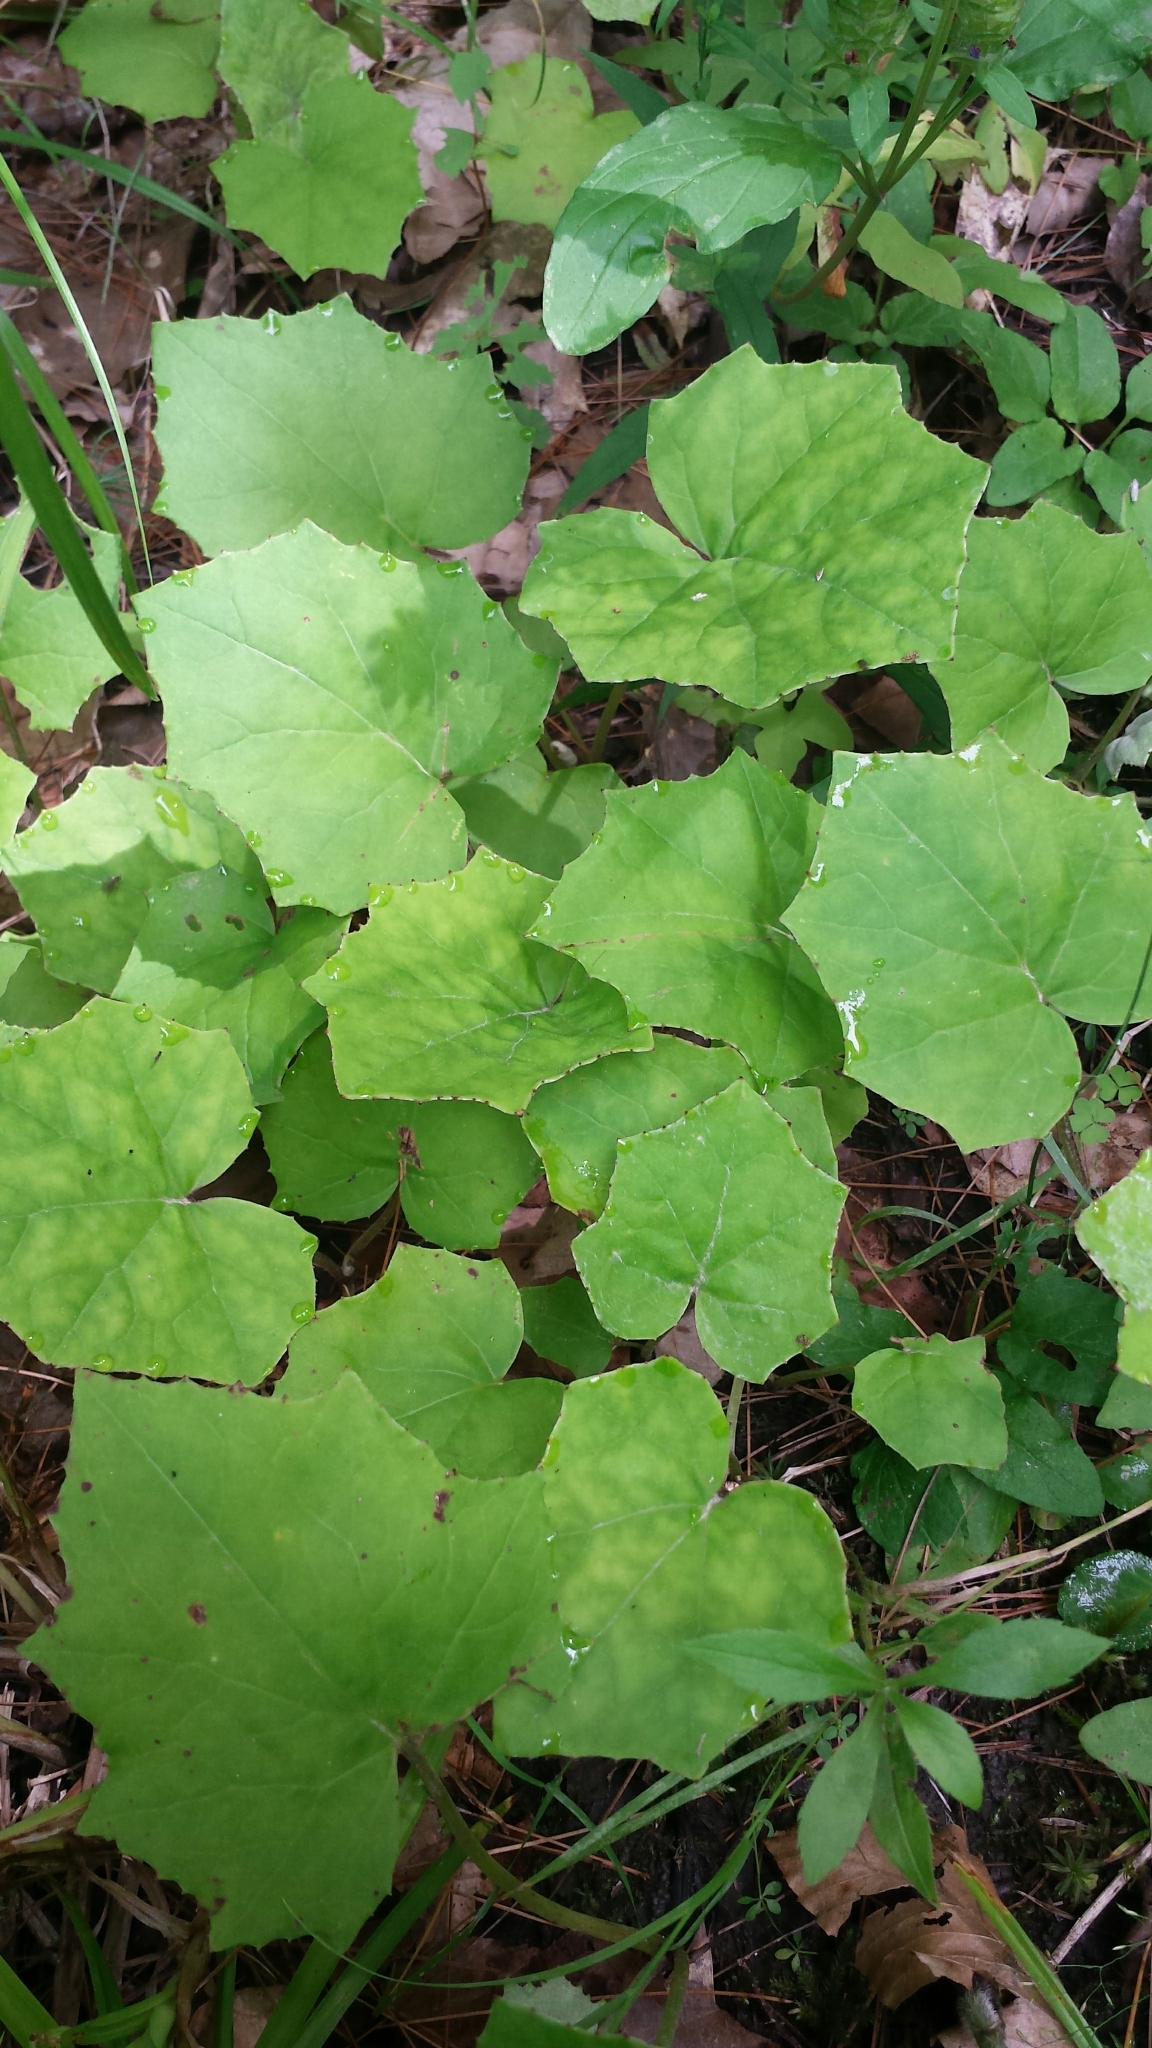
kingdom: Plantae
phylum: Tracheophyta
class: Magnoliopsida
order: Asterales
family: Asteraceae
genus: Tussilago
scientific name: Tussilago farfara
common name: Coltsfoot
